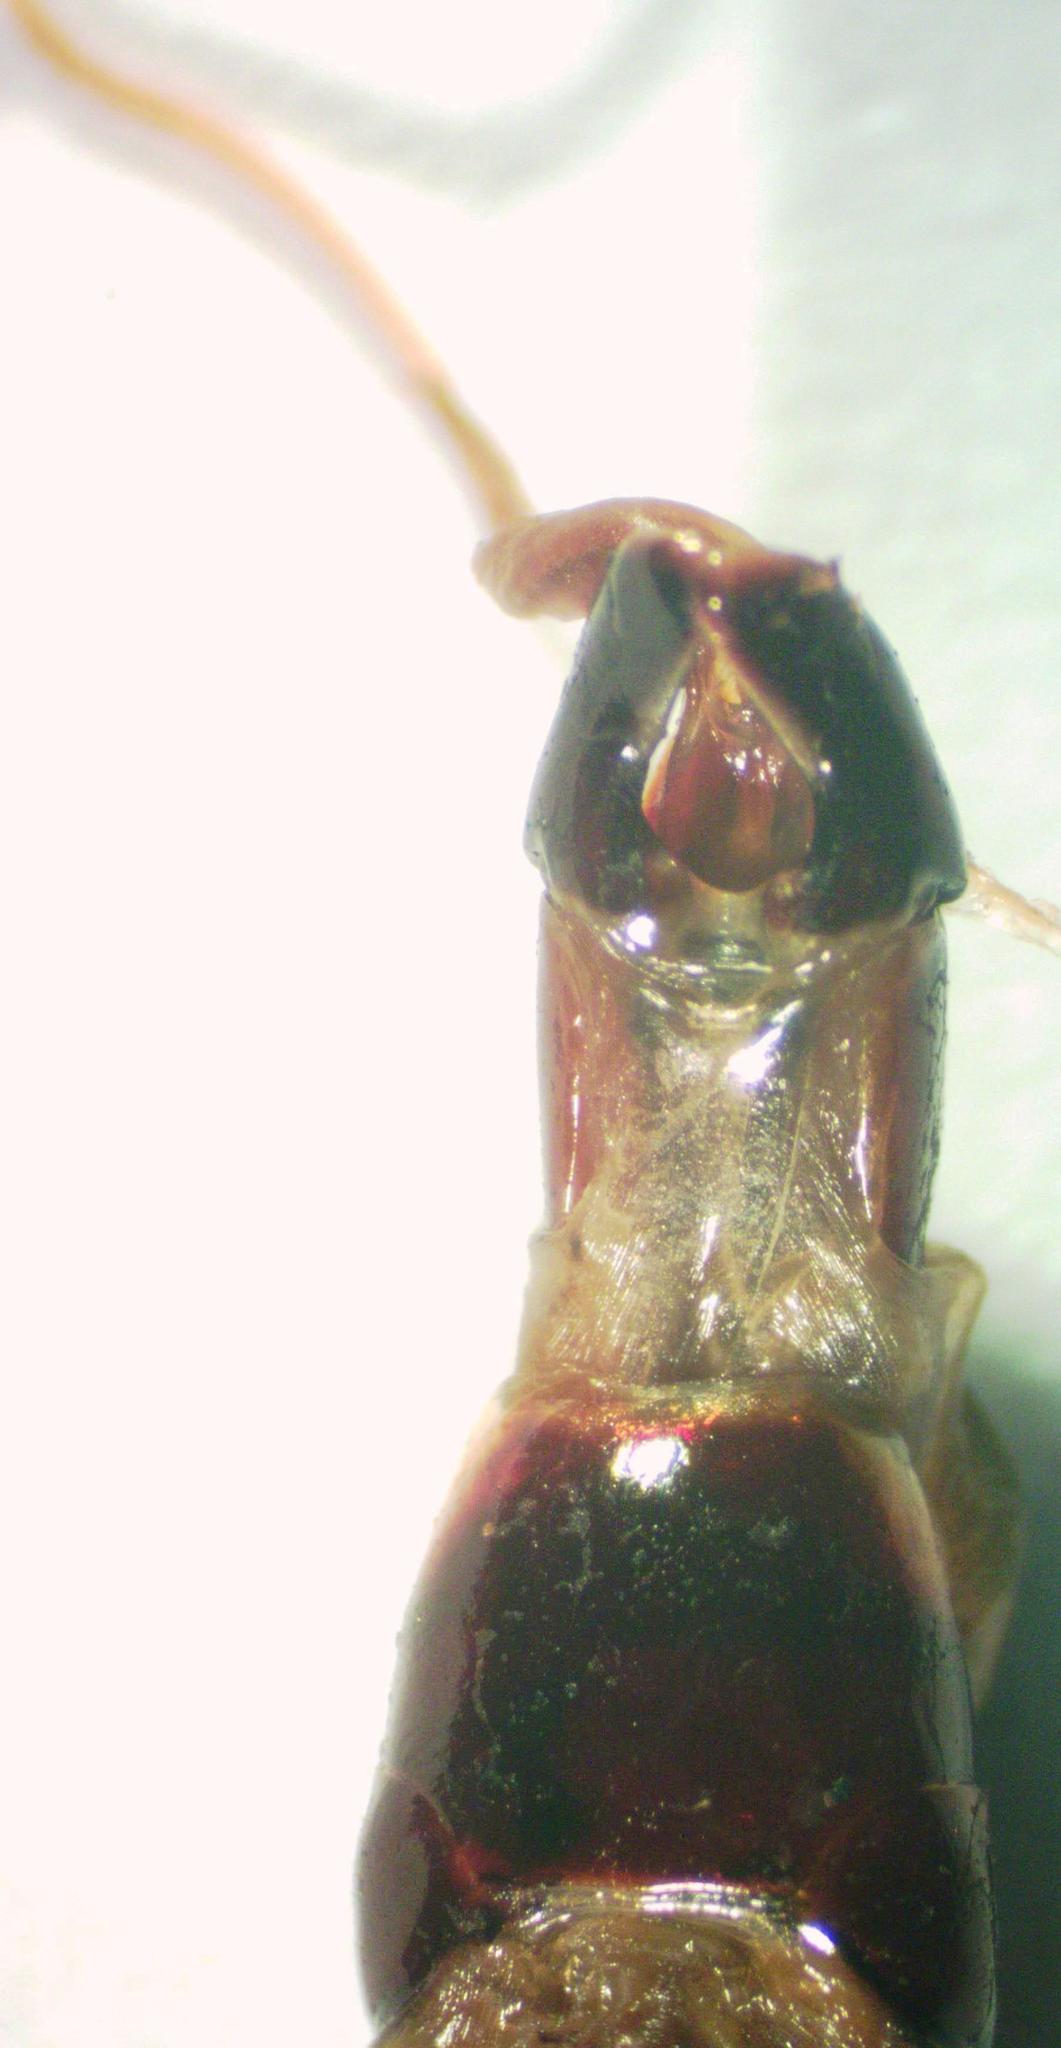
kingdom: Animalia
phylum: Arthropoda
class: Insecta
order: Coleoptera
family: Lucanidae
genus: Serrognathus
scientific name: Serrognathus titanus
